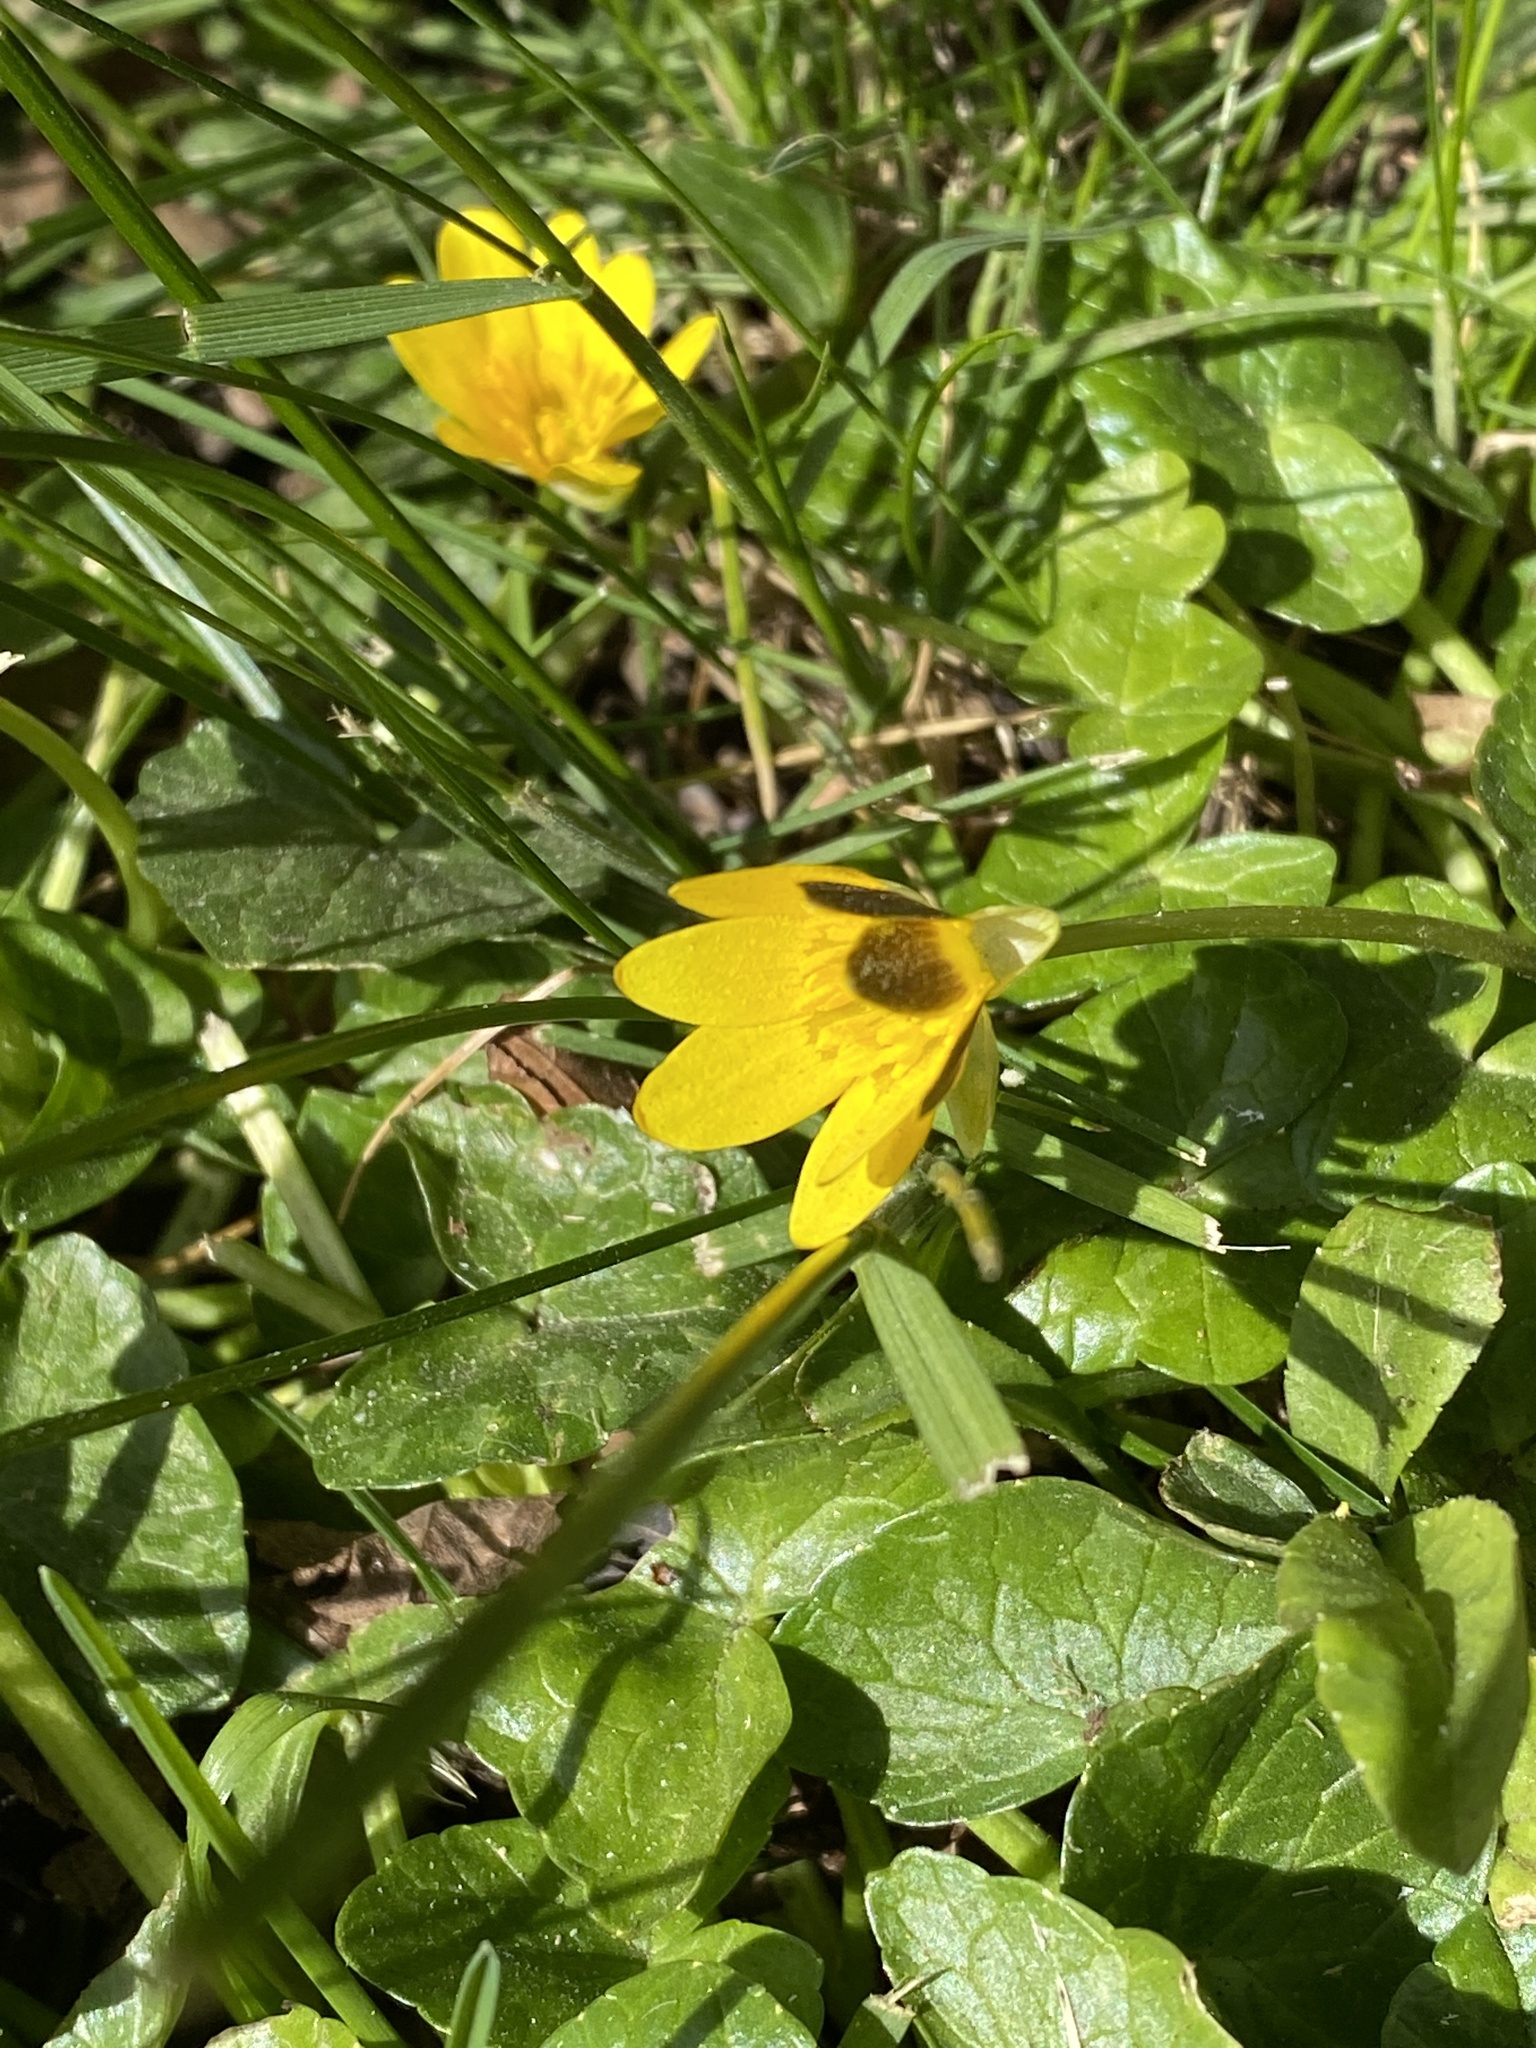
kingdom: Plantae
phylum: Tracheophyta
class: Magnoliopsida
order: Ranunculales
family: Ranunculaceae
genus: Ficaria
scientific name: Ficaria verna
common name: Lesser celandine
